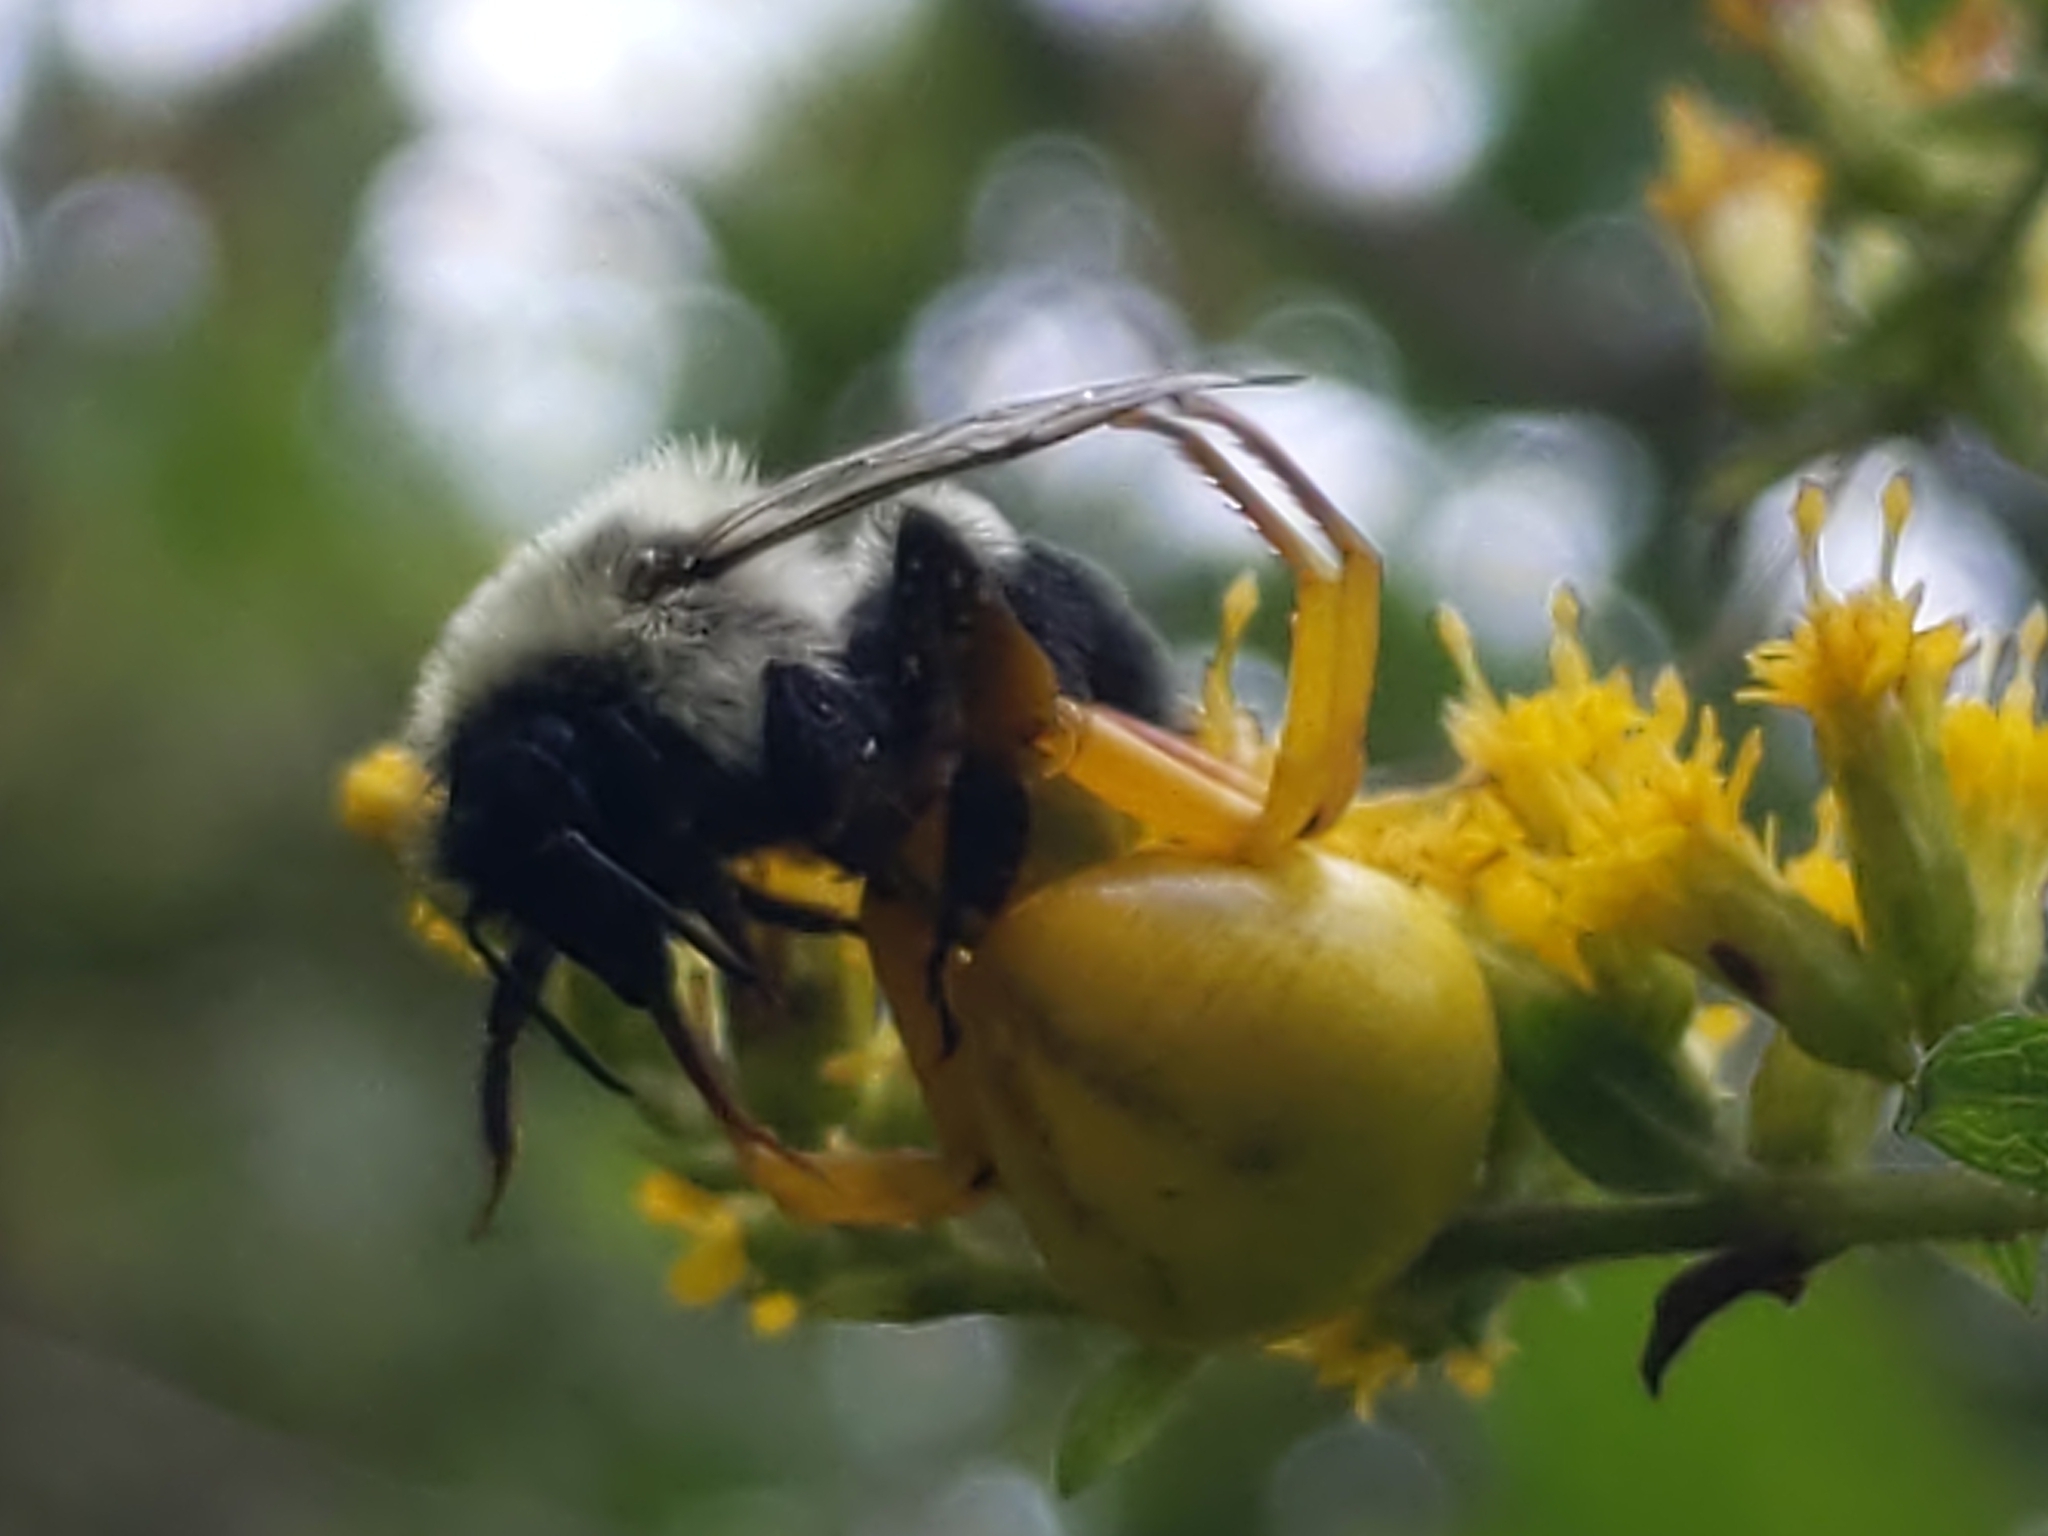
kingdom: Animalia
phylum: Arthropoda
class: Insecta
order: Hymenoptera
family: Apidae
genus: Bombus
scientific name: Bombus impatiens
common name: Common eastern bumble bee
